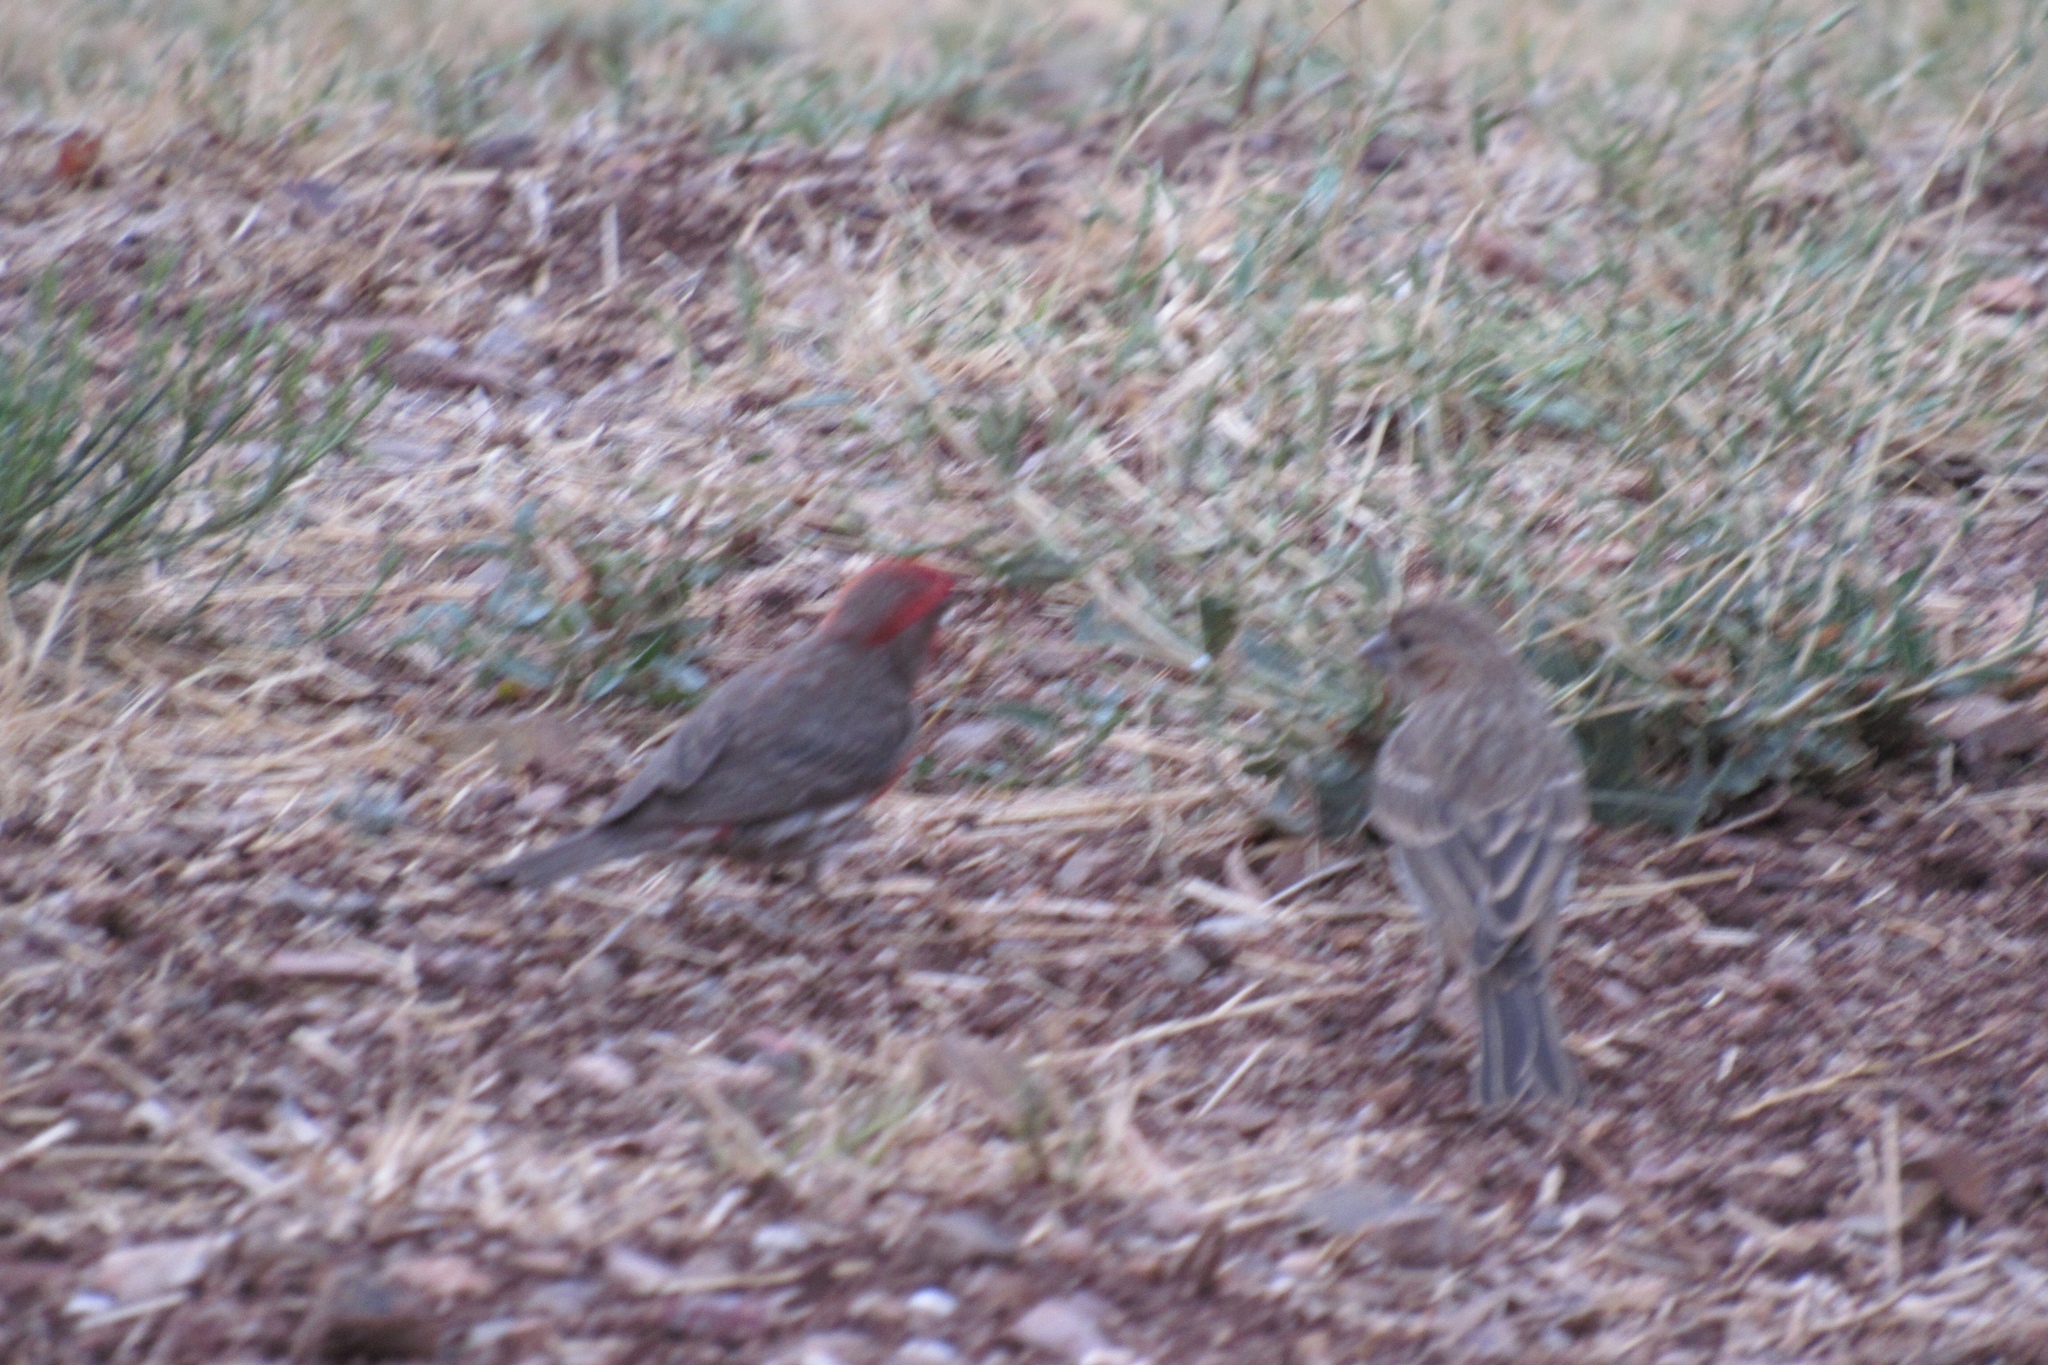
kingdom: Animalia
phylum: Chordata
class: Aves
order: Passeriformes
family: Fringillidae
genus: Haemorhous
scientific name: Haemorhous mexicanus
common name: House finch
